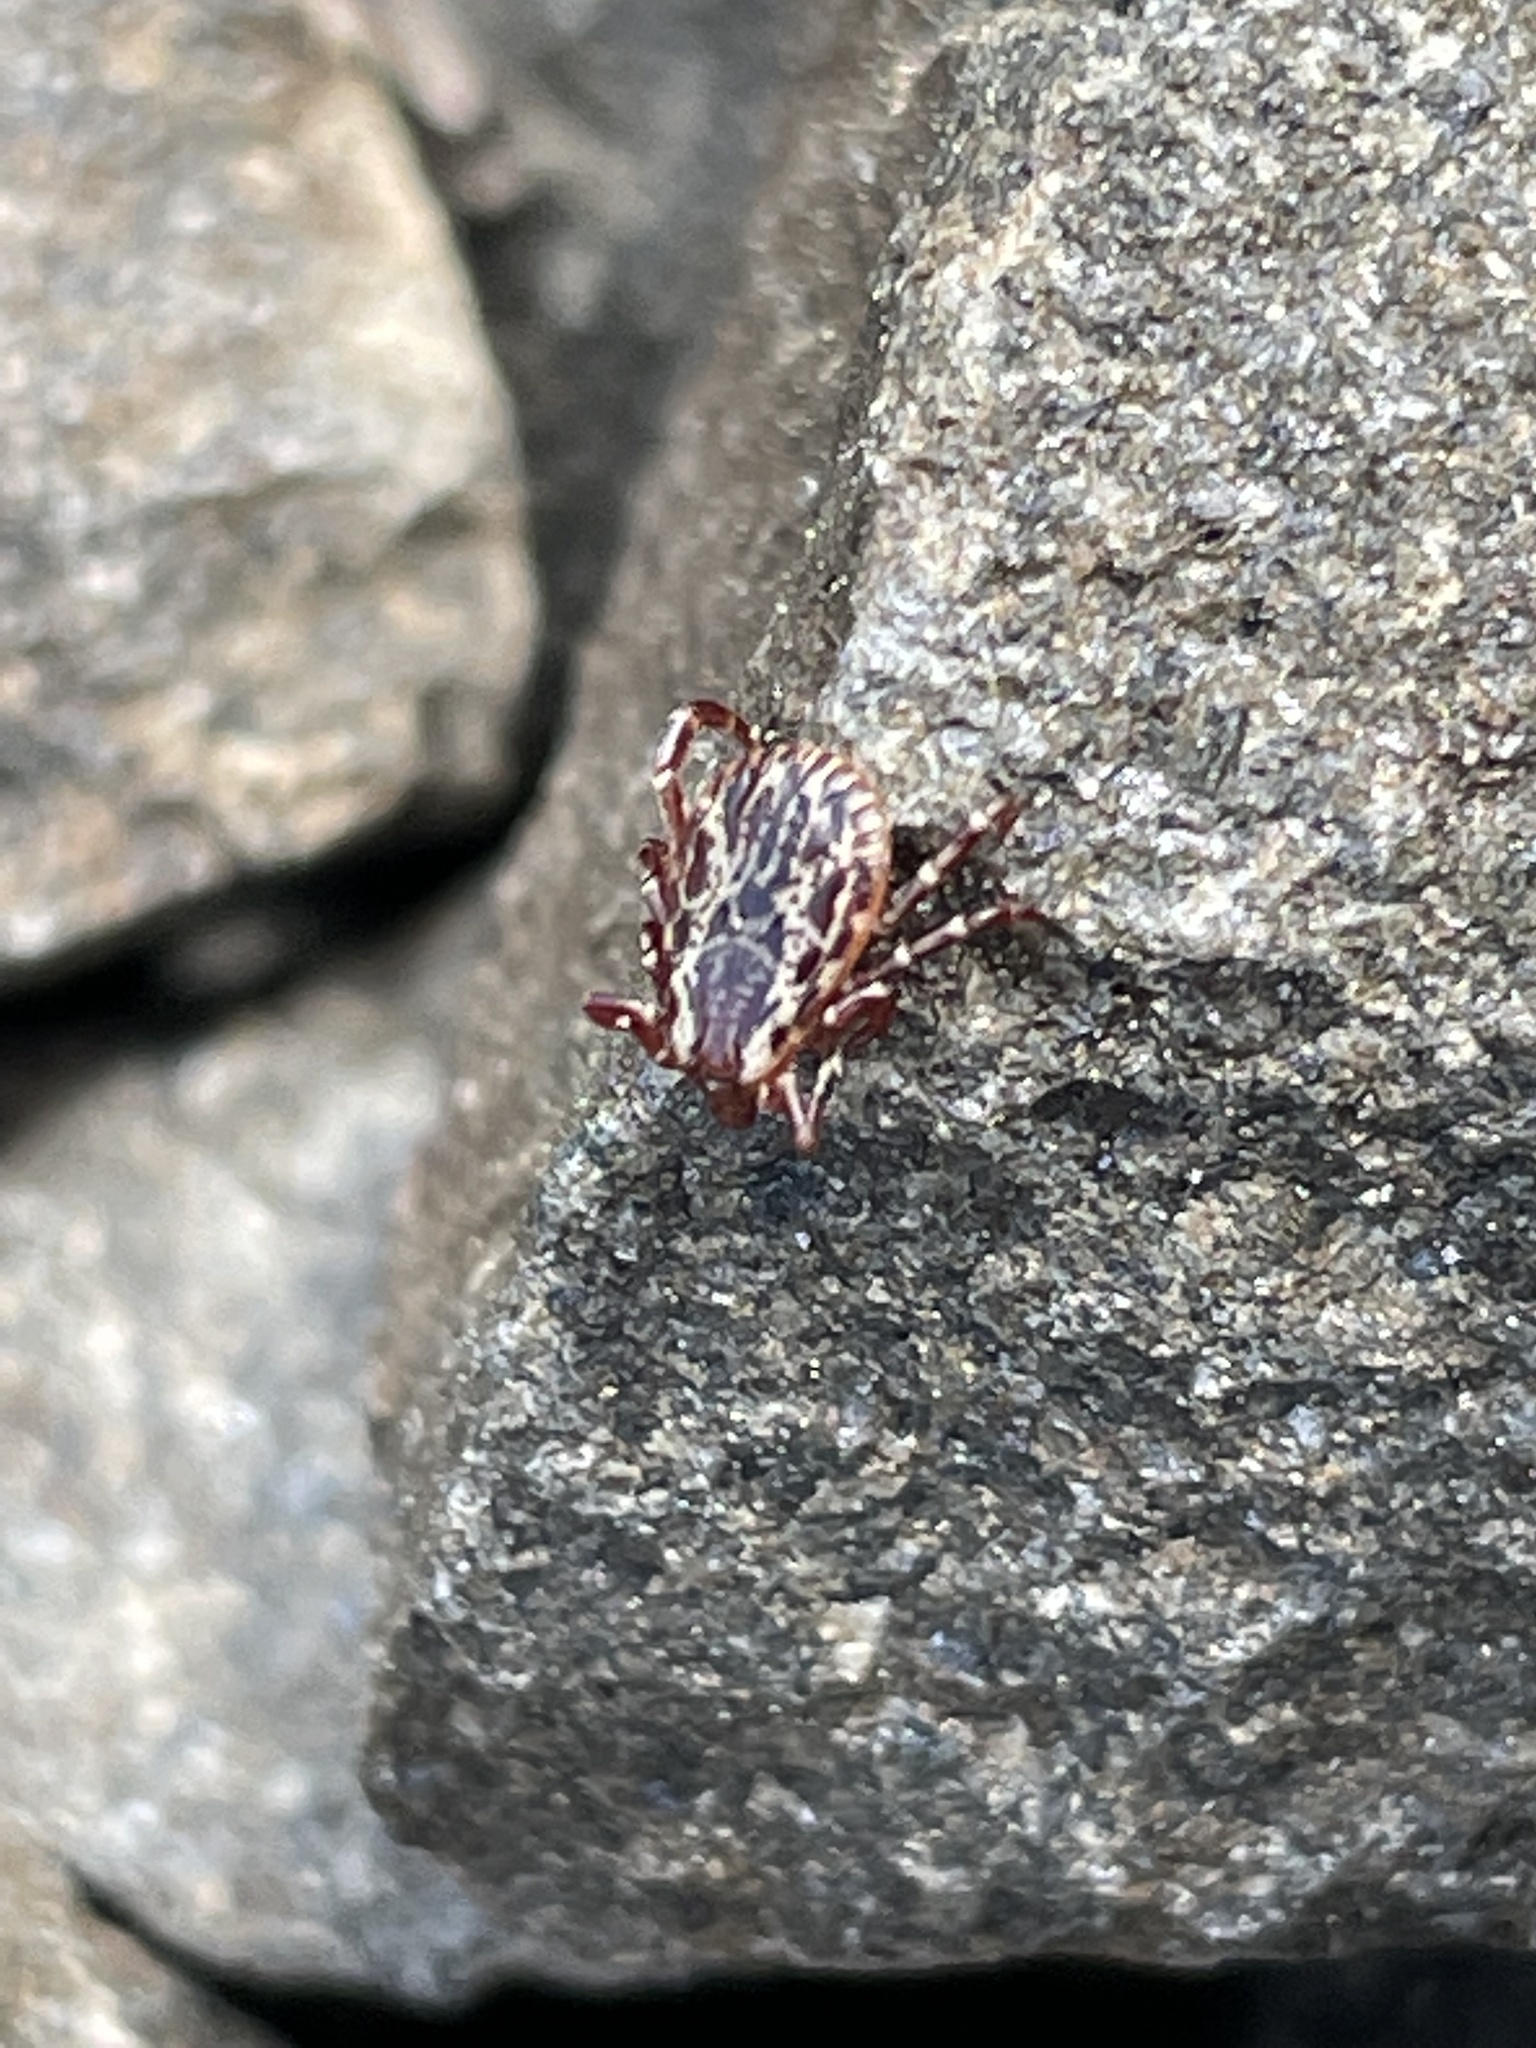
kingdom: Animalia
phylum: Arthropoda
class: Arachnida
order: Ixodida
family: Ixodidae
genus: Dermacentor
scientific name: Dermacentor variabilis
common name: American dog tick
